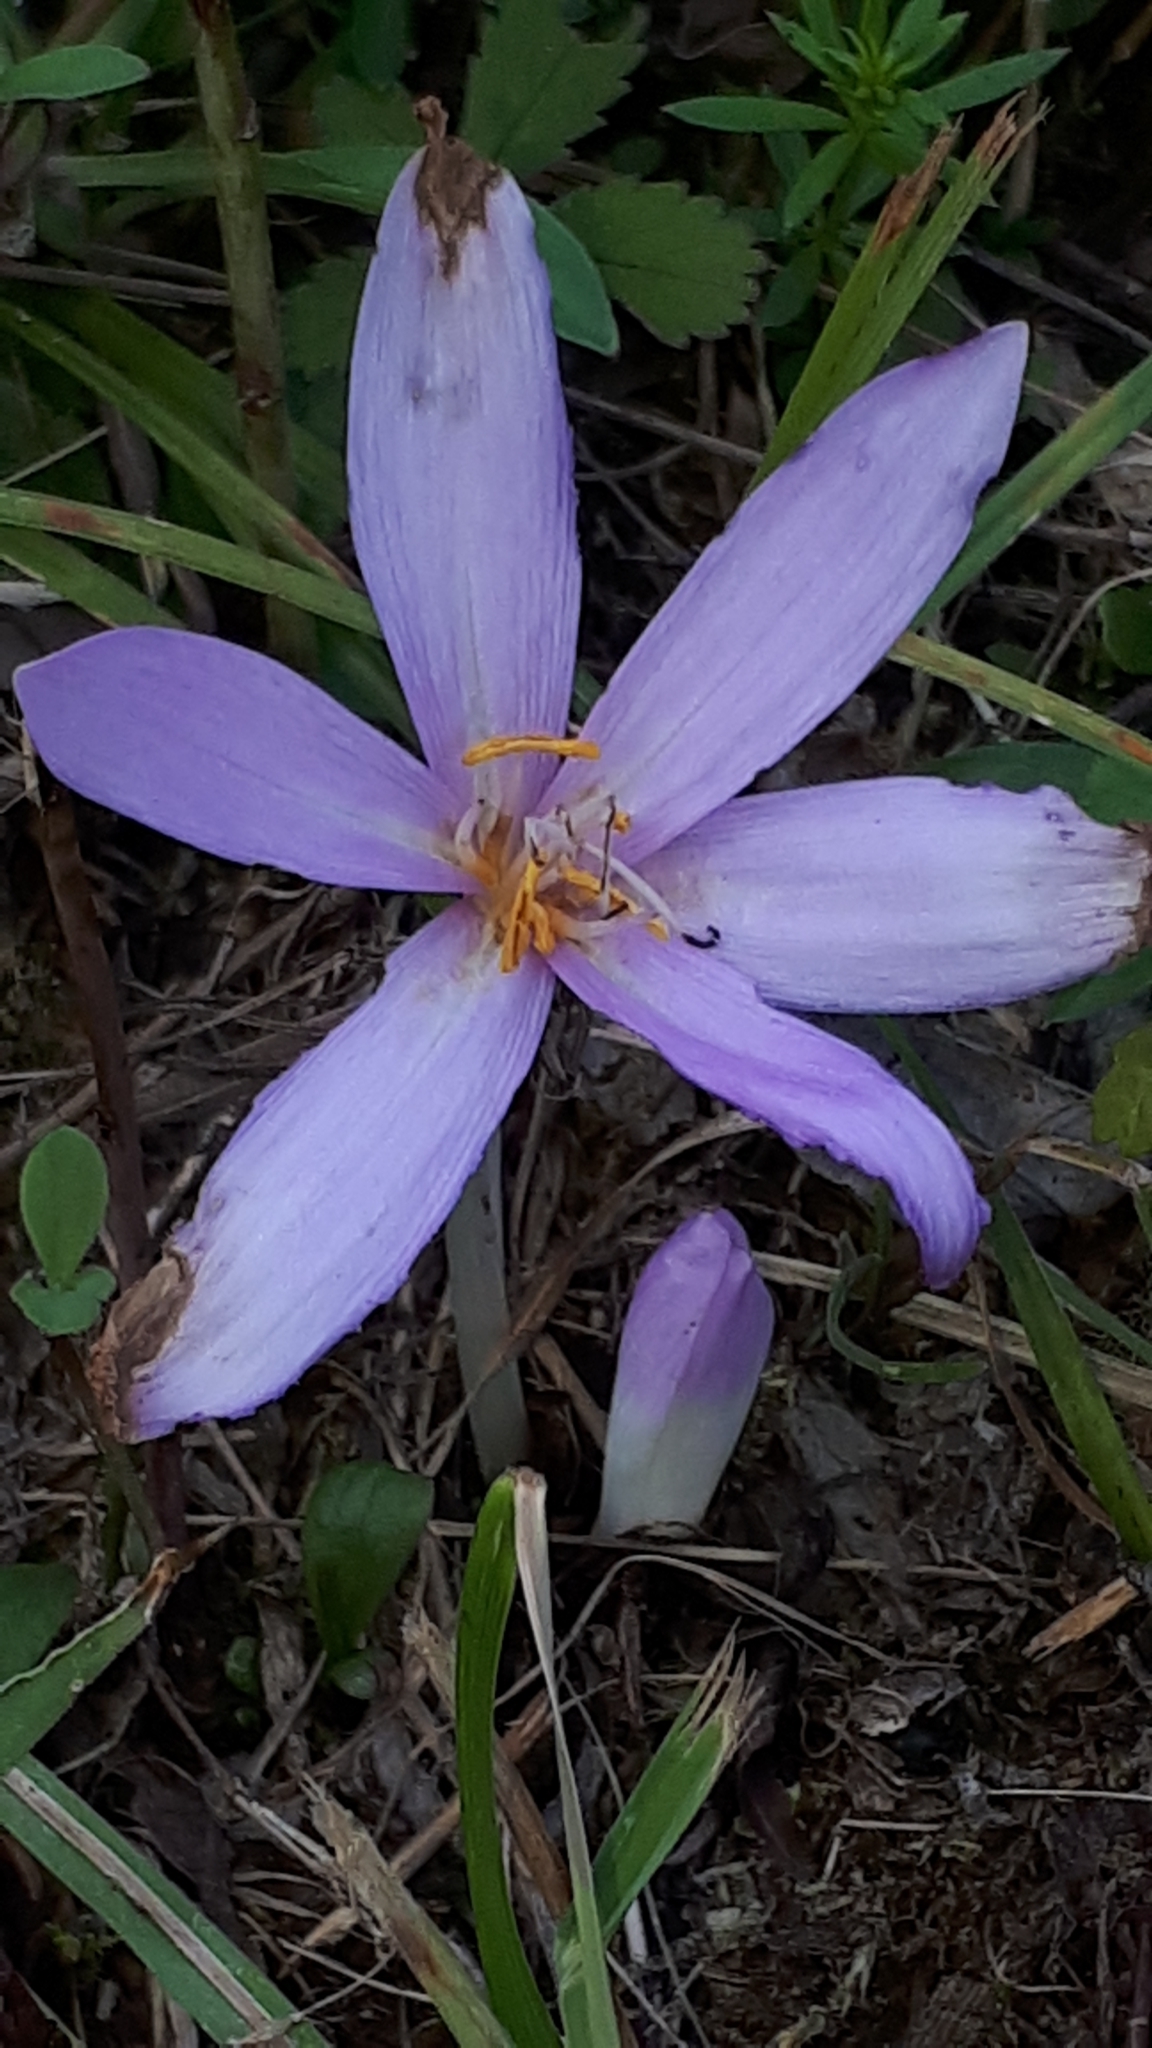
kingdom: Plantae
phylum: Tracheophyta
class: Liliopsida
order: Liliales
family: Colchicaceae
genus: Colchicum
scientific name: Colchicum autumnale
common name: Autumn crocus
